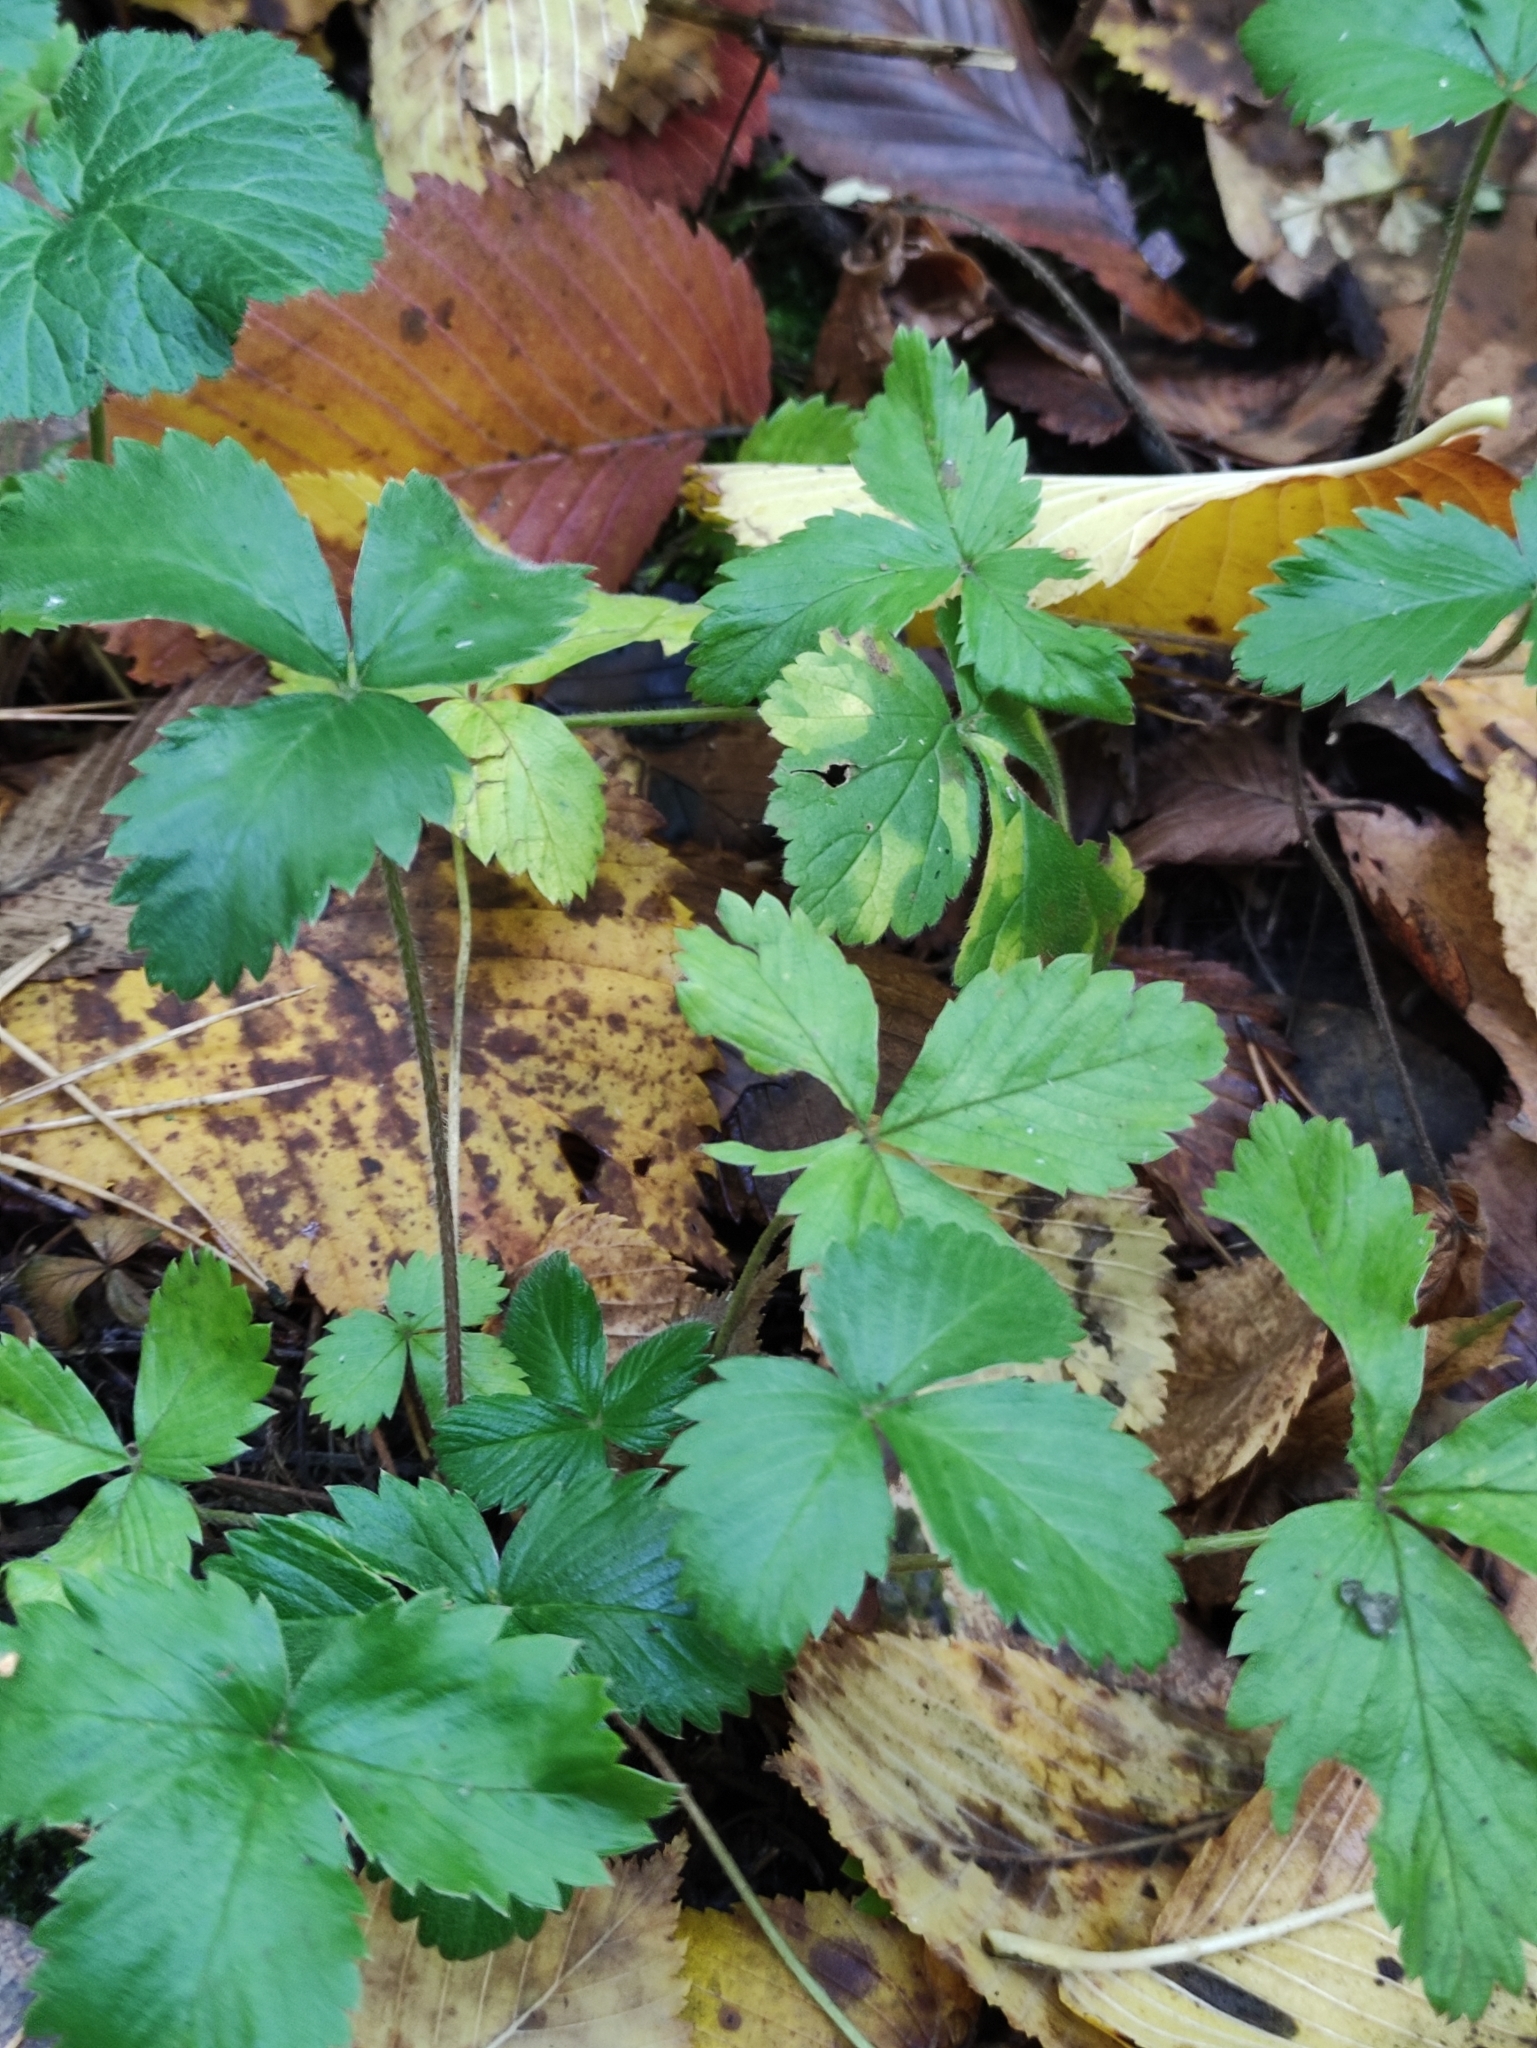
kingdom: Plantae
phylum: Tracheophyta
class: Magnoliopsida
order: Rosales
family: Rosaceae
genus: Fragaria
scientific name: Fragaria vesca
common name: Wild strawberry
